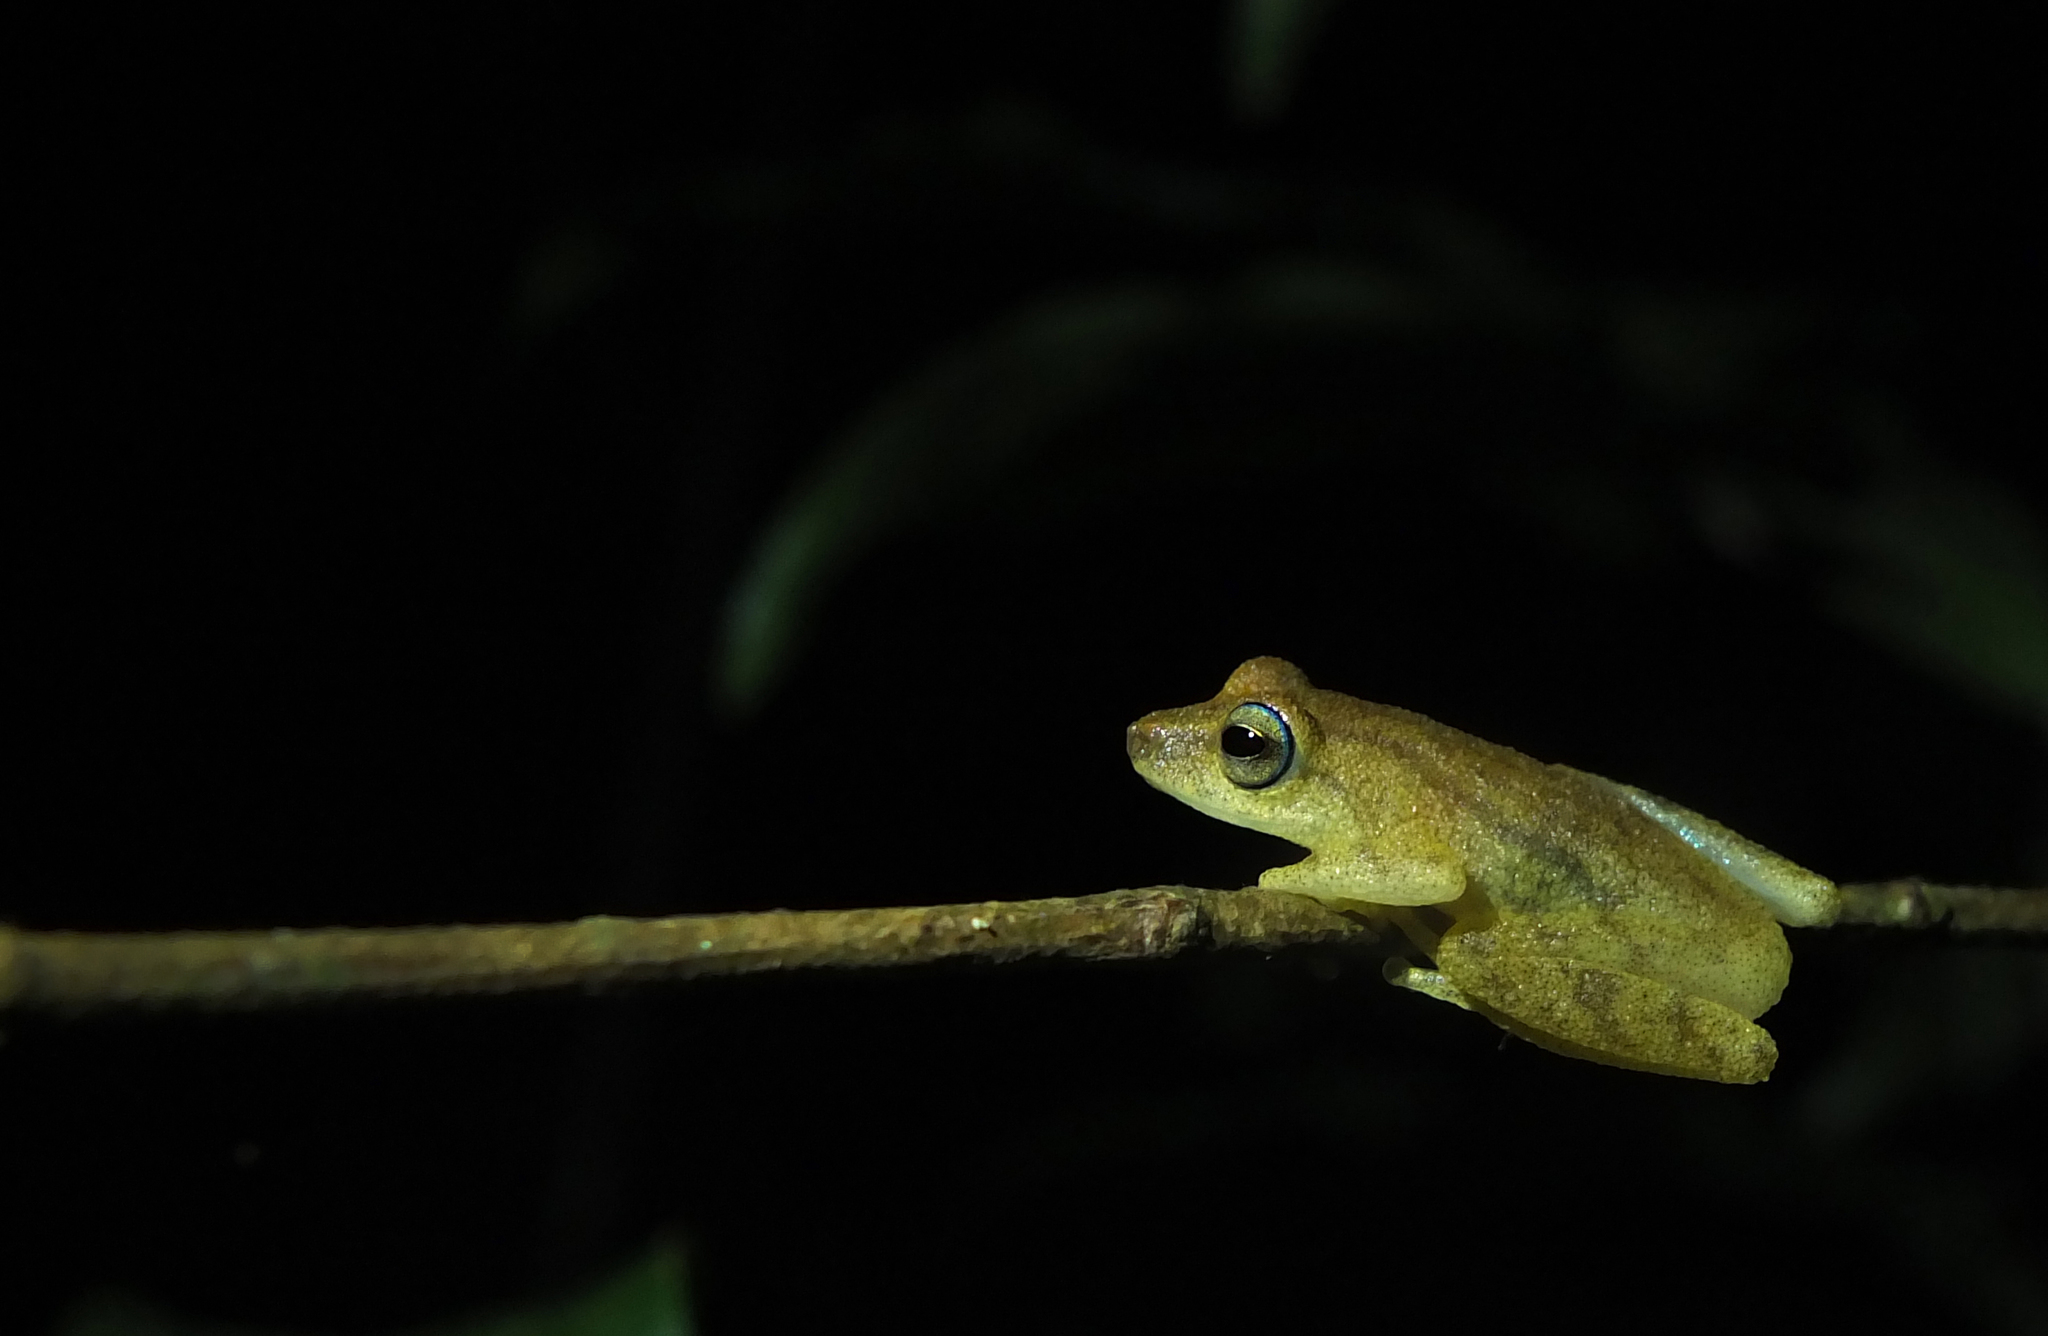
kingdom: Animalia
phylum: Chordata
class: Amphibia
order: Anura
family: Rhacophoridae
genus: Raorchestes
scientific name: Raorchestes luteolus
